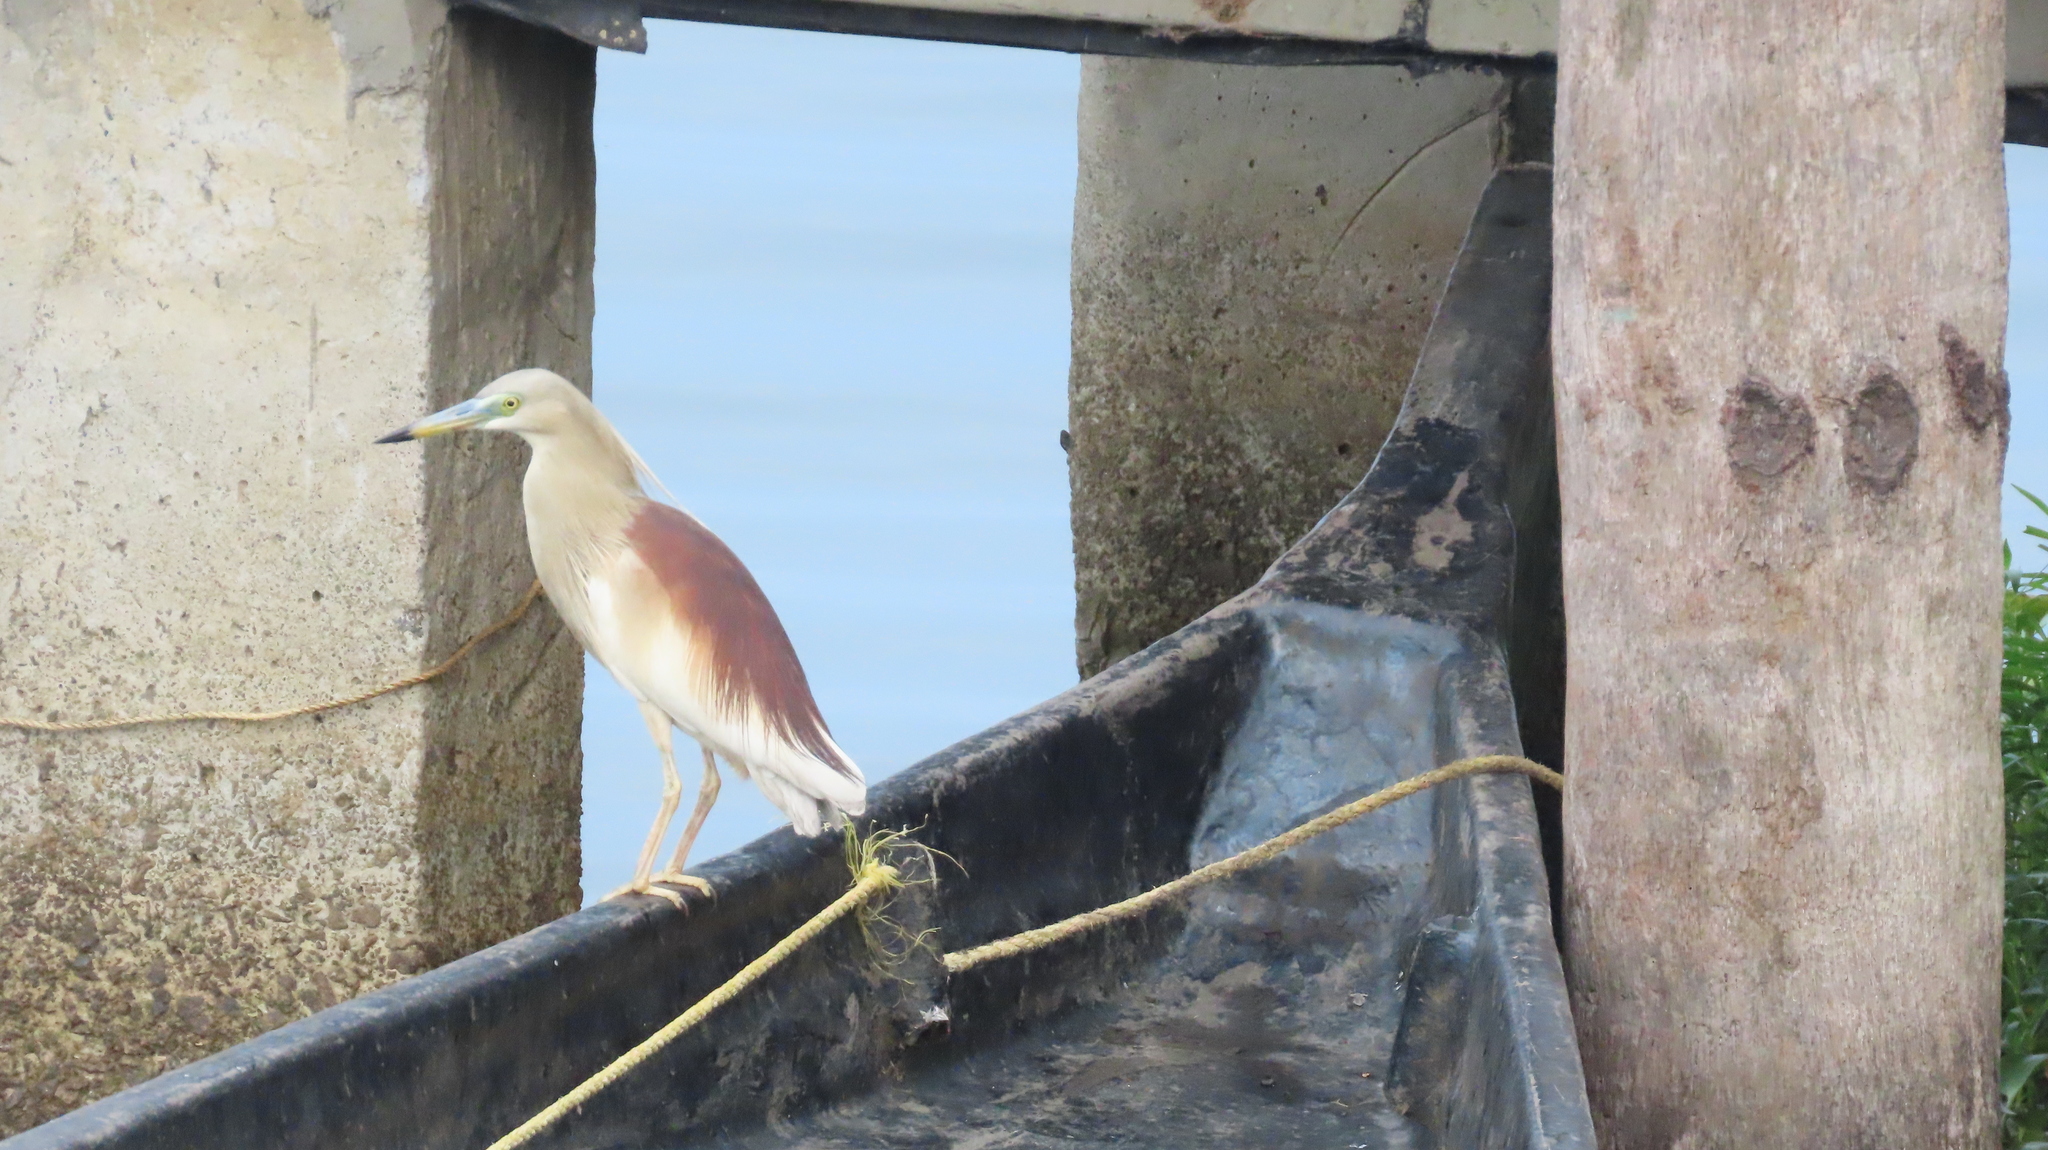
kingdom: Animalia
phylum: Chordata
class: Aves
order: Pelecaniformes
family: Ardeidae
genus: Ardeola
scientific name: Ardeola grayii
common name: Indian pond heron
